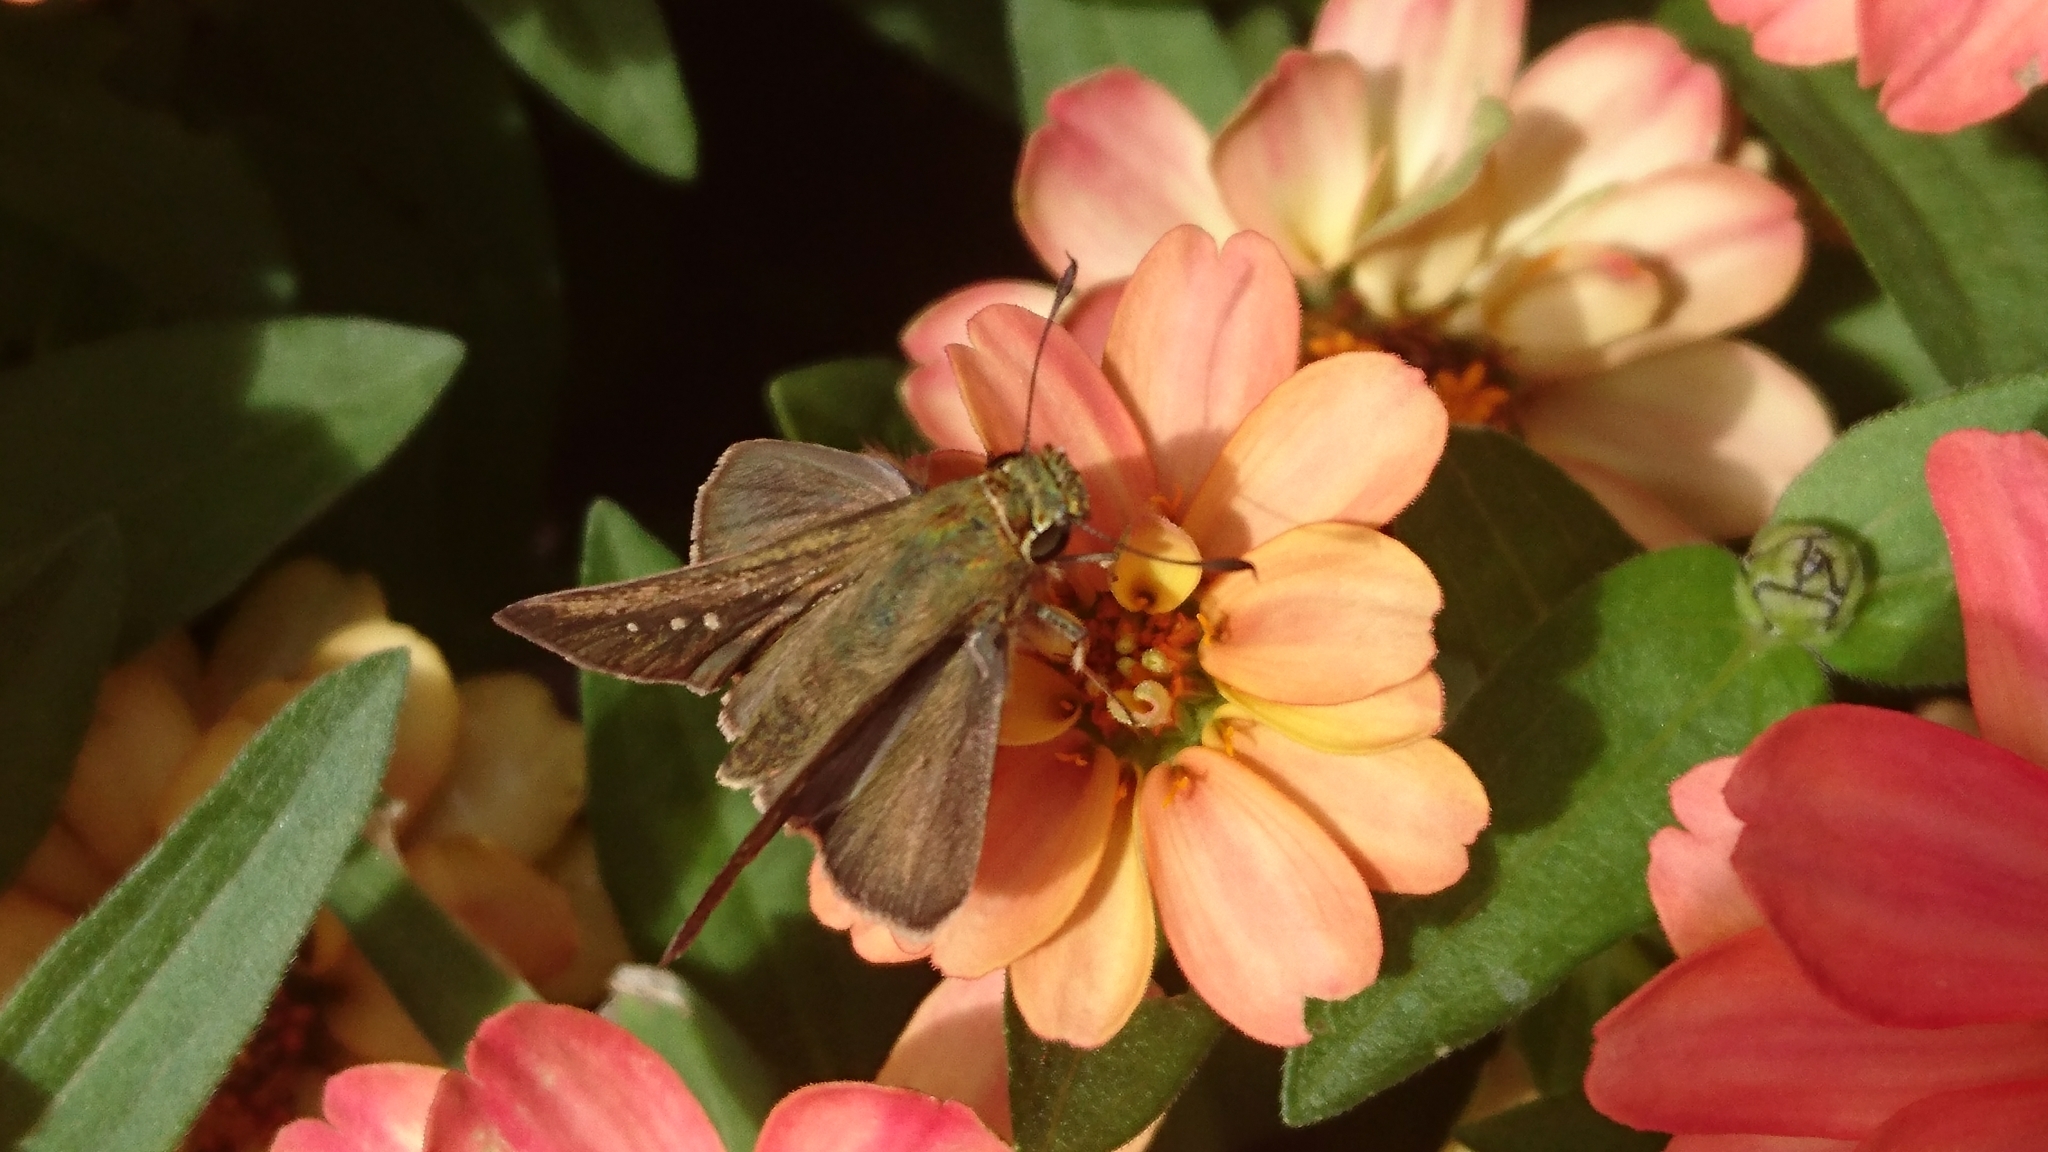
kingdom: Animalia
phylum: Arthropoda
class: Insecta
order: Lepidoptera
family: Hesperiidae
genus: Pelopidas
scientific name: Pelopidas mathias
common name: Black-branded swift
